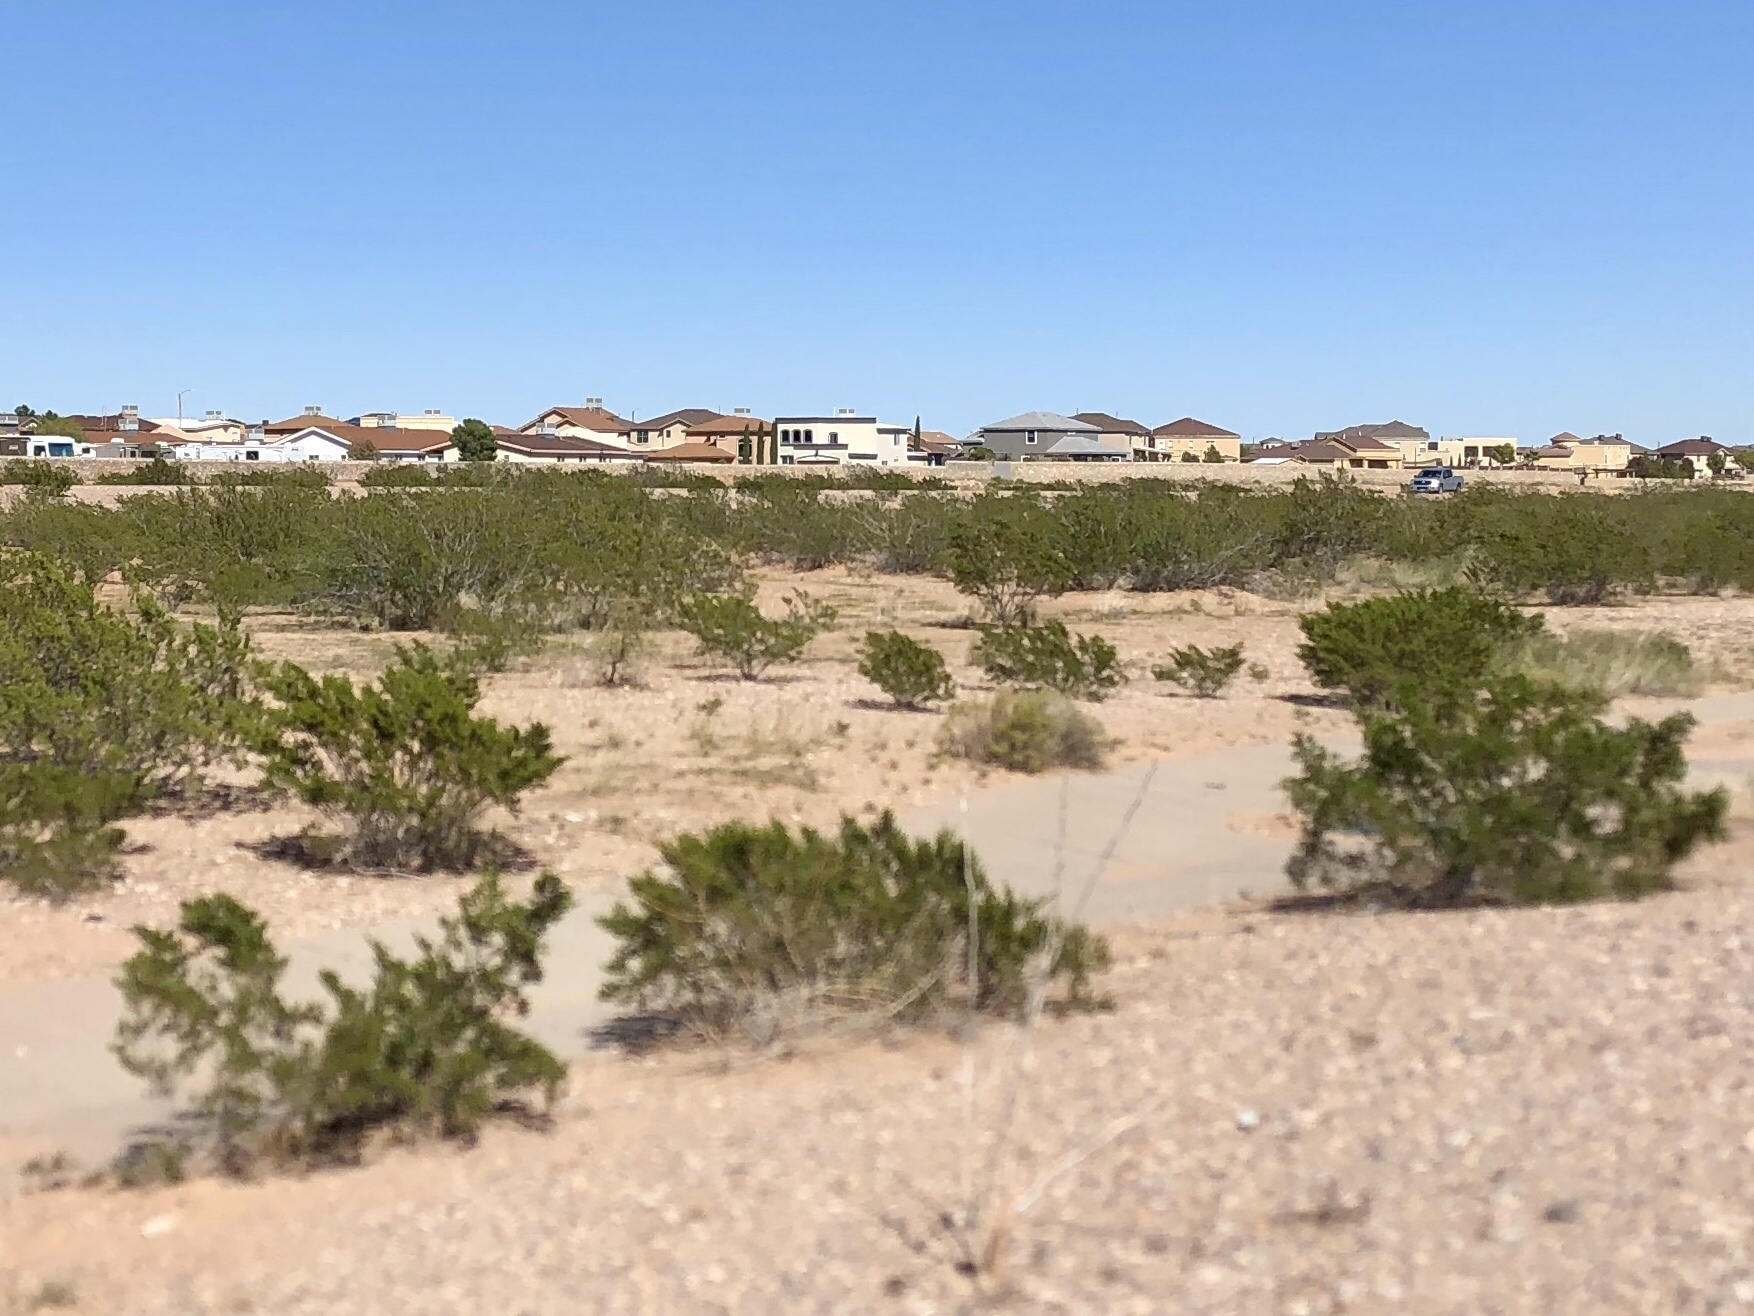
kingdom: Plantae
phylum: Tracheophyta
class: Magnoliopsida
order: Zygophyllales
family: Zygophyllaceae
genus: Larrea
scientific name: Larrea tridentata
